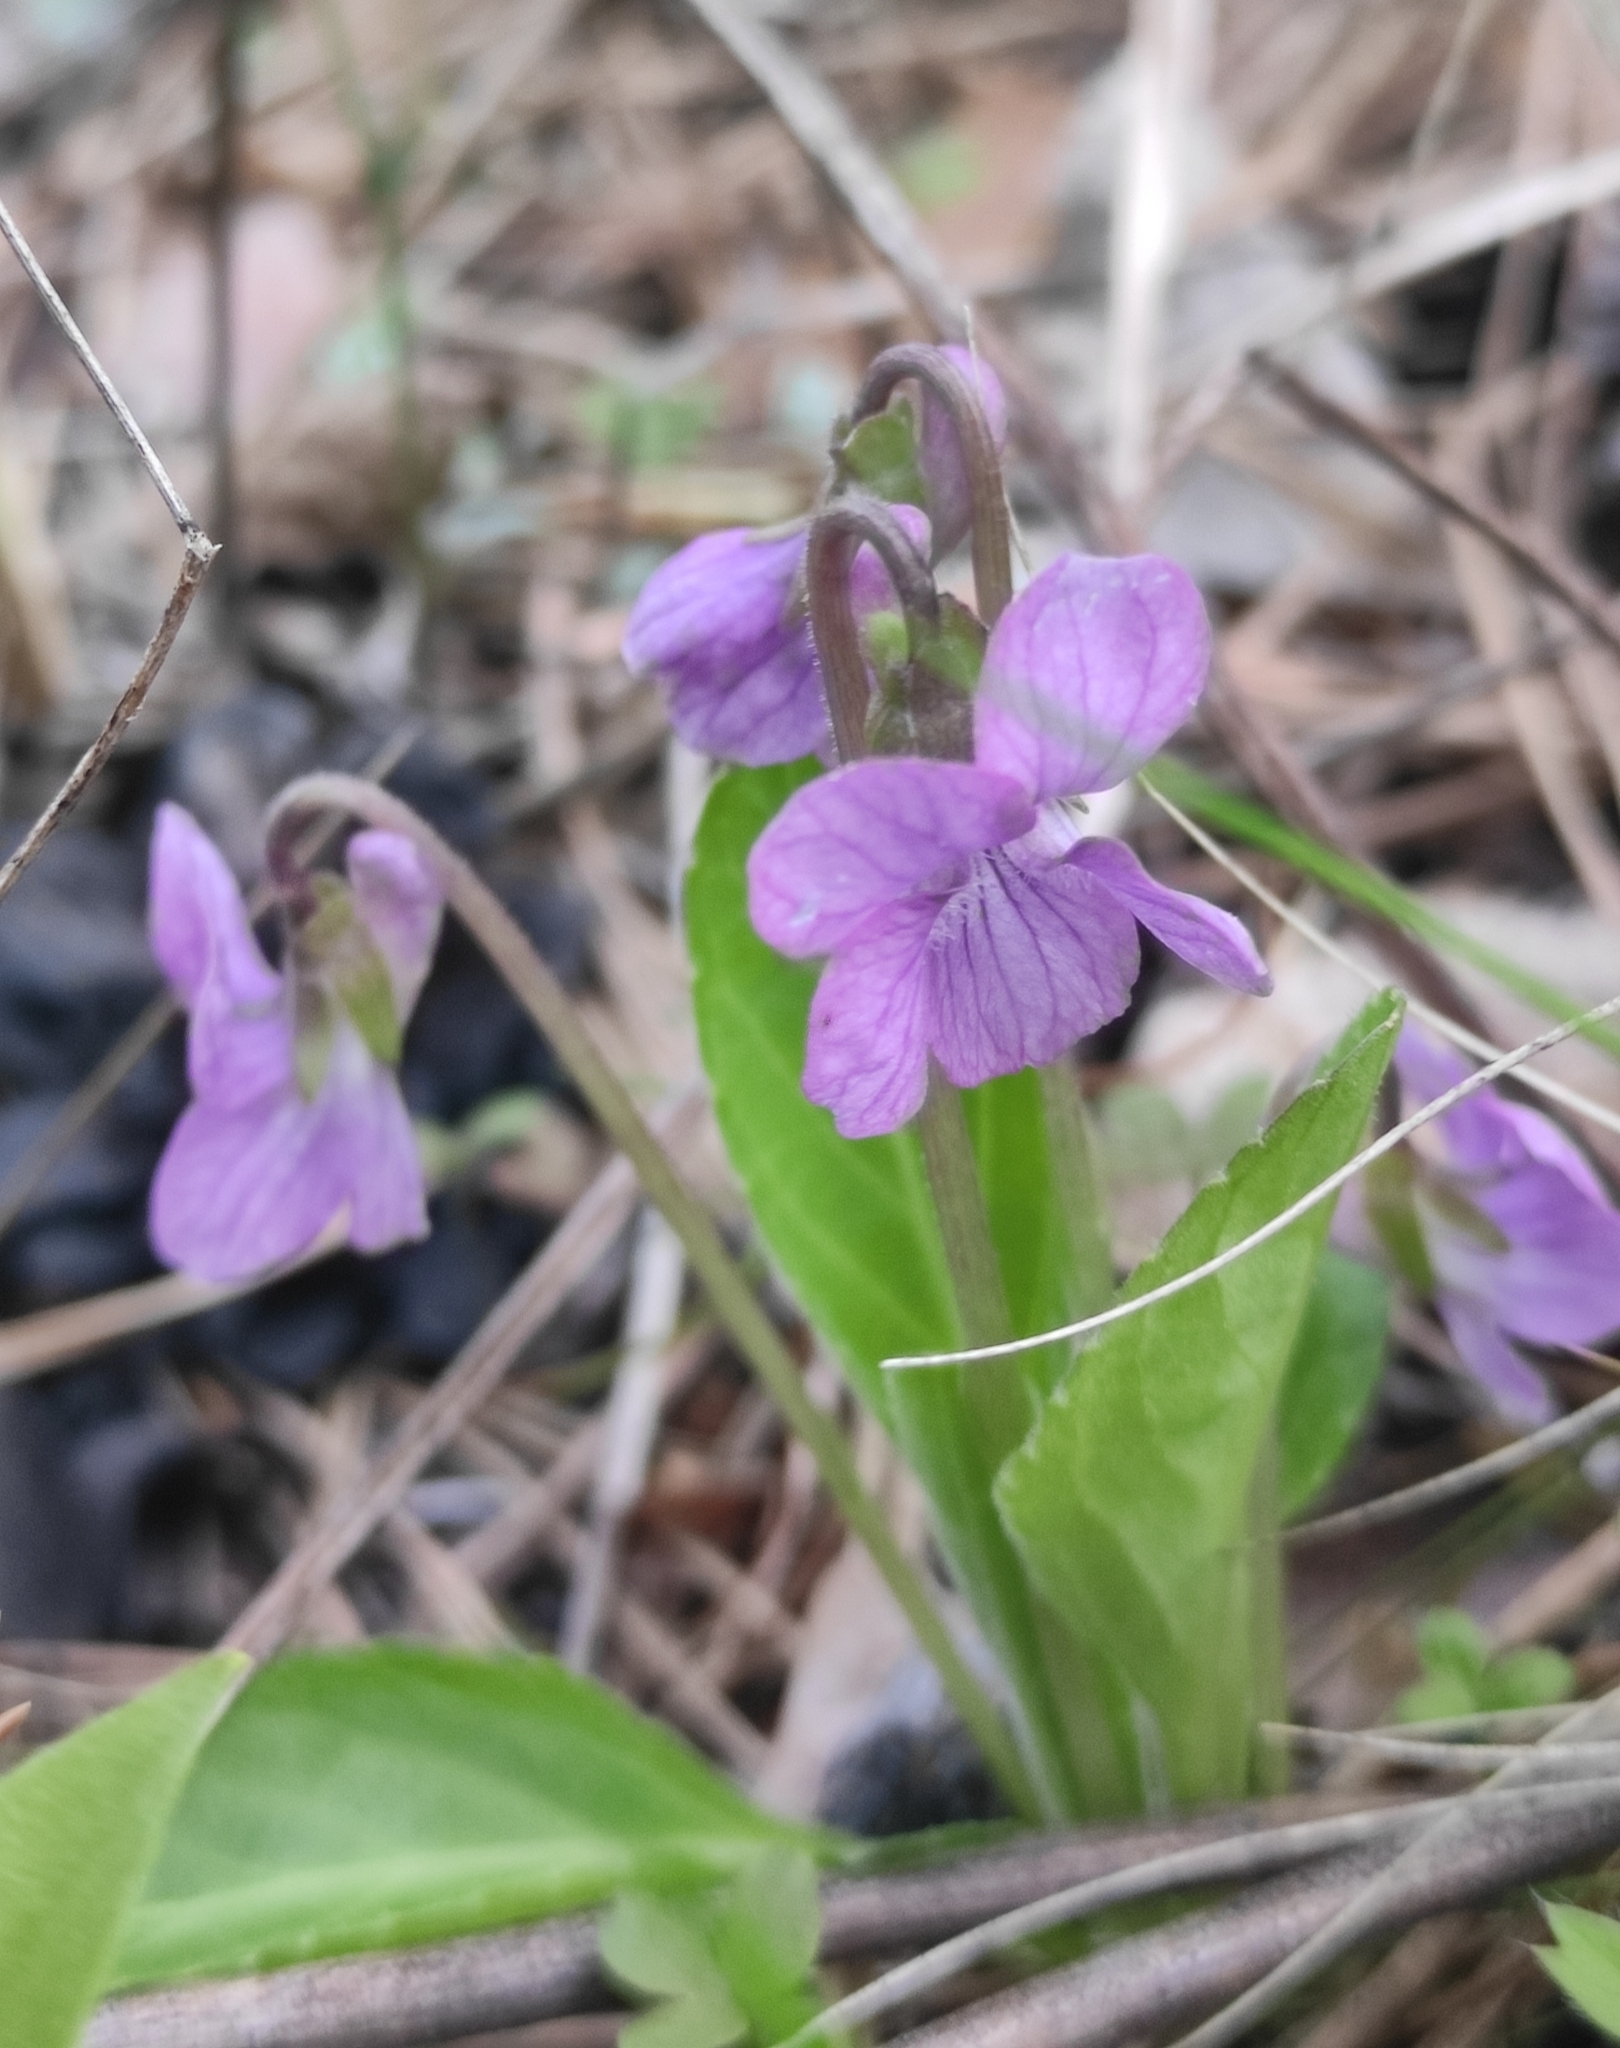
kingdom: Plantae
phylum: Tracheophyta
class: Magnoliopsida
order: Malpighiales
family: Violaceae
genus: Viola
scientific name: Viola gmeliniana
